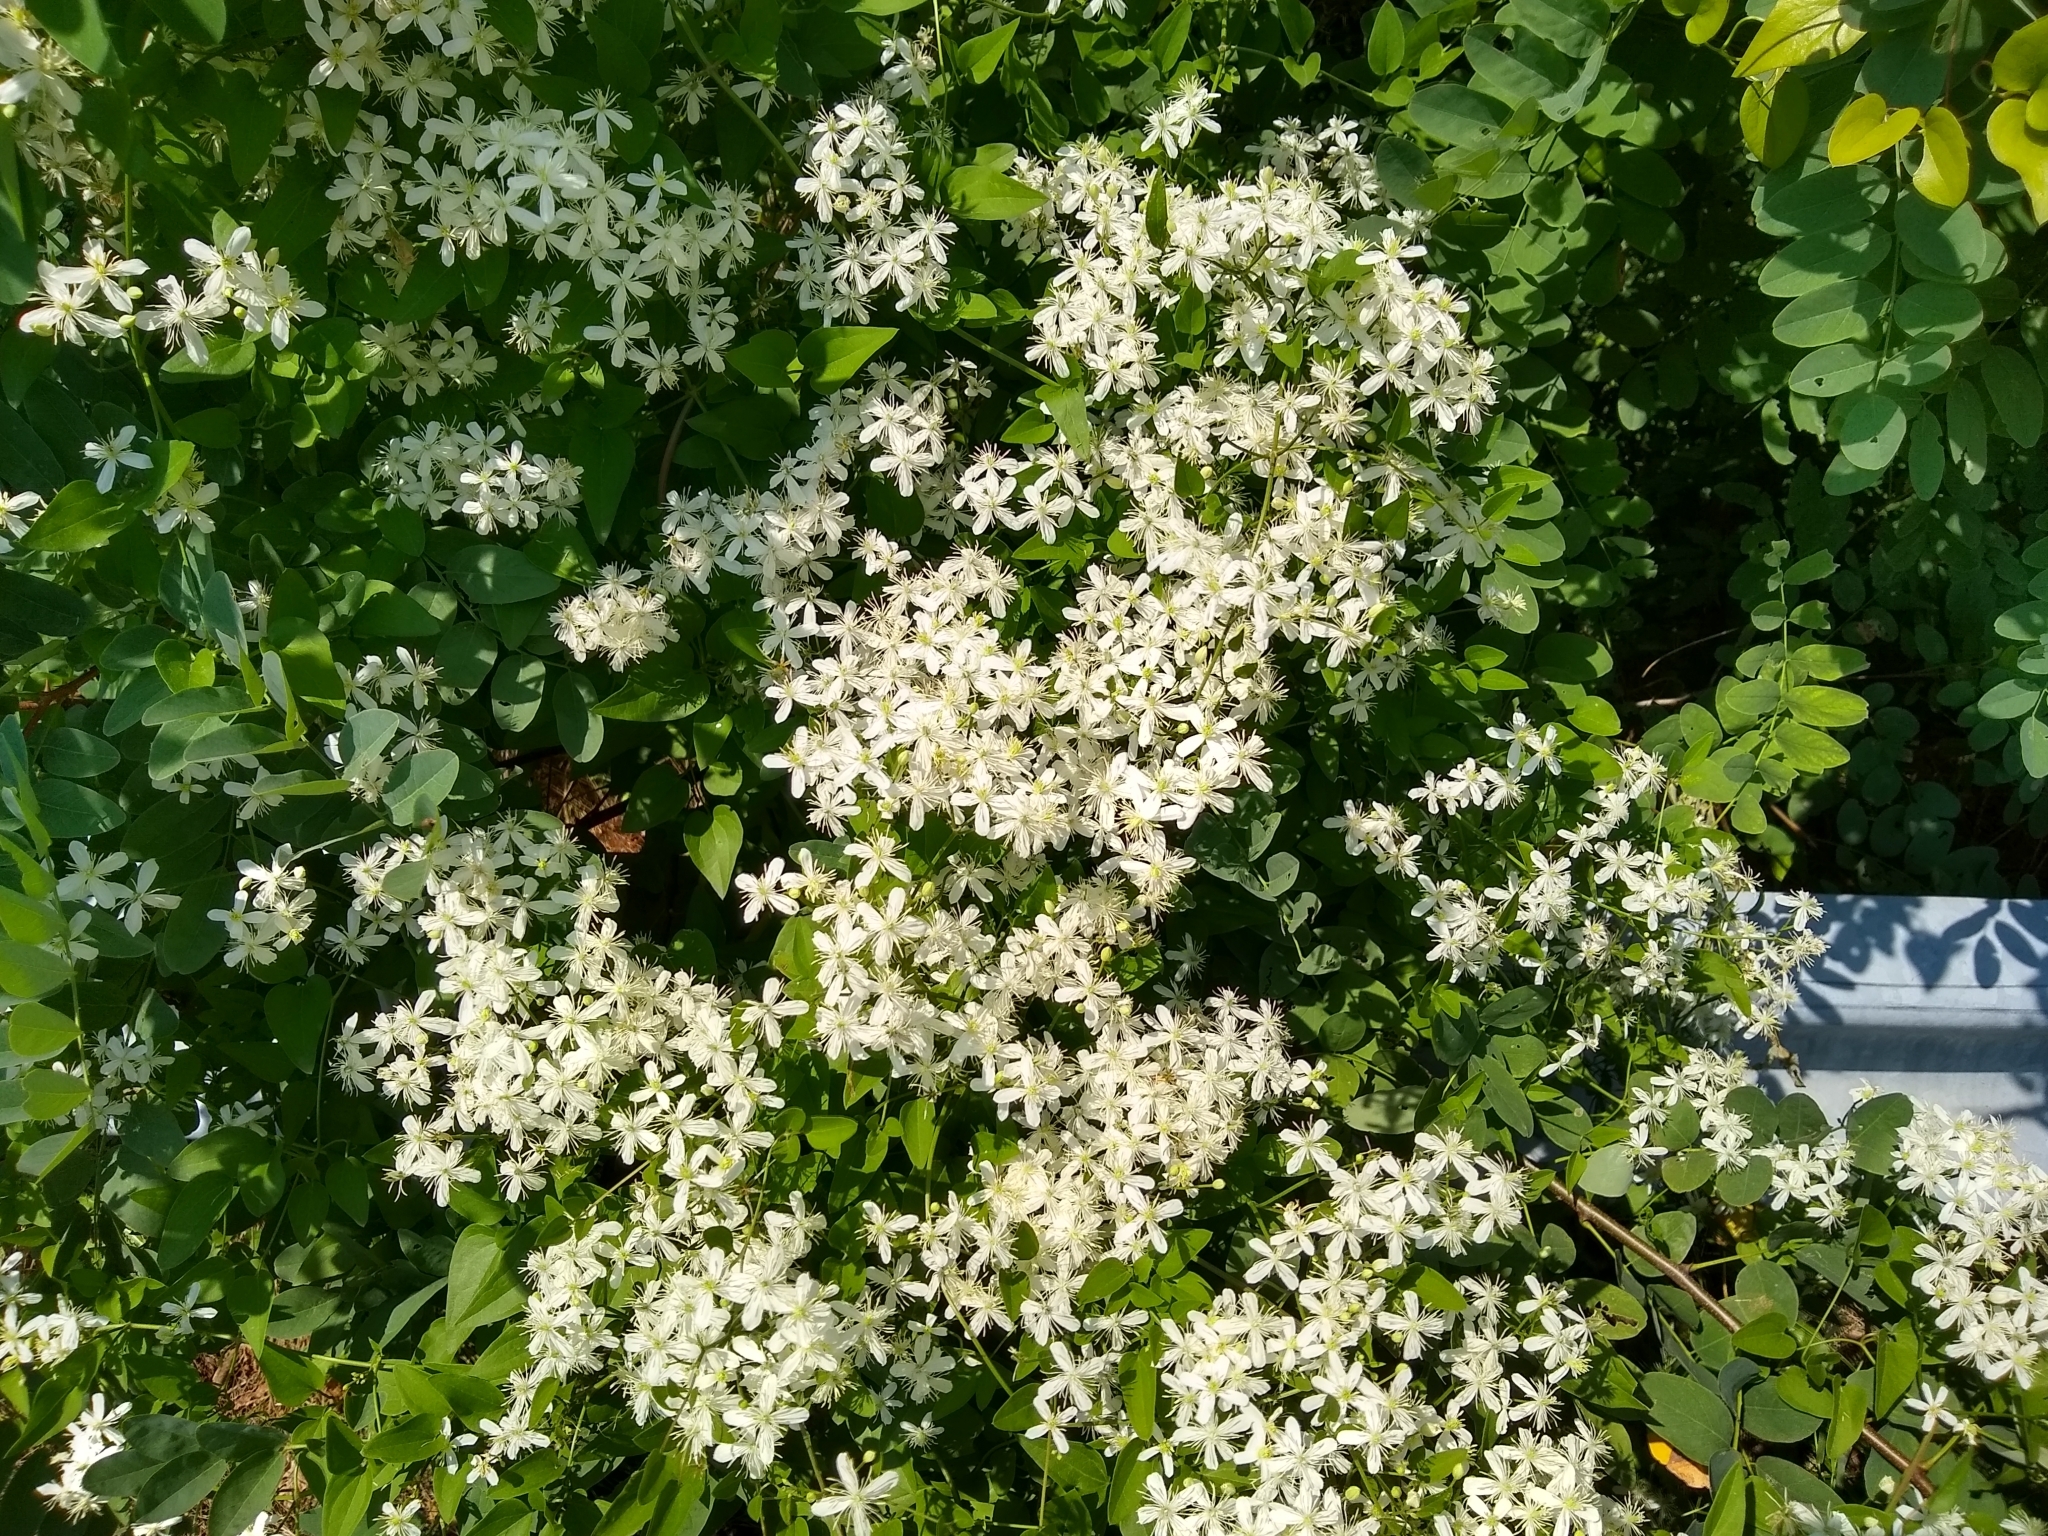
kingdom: Plantae
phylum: Tracheophyta
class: Magnoliopsida
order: Ranunculales
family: Ranunculaceae
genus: Clematis
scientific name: Clematis terniflora
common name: Sweet autumn clematis
